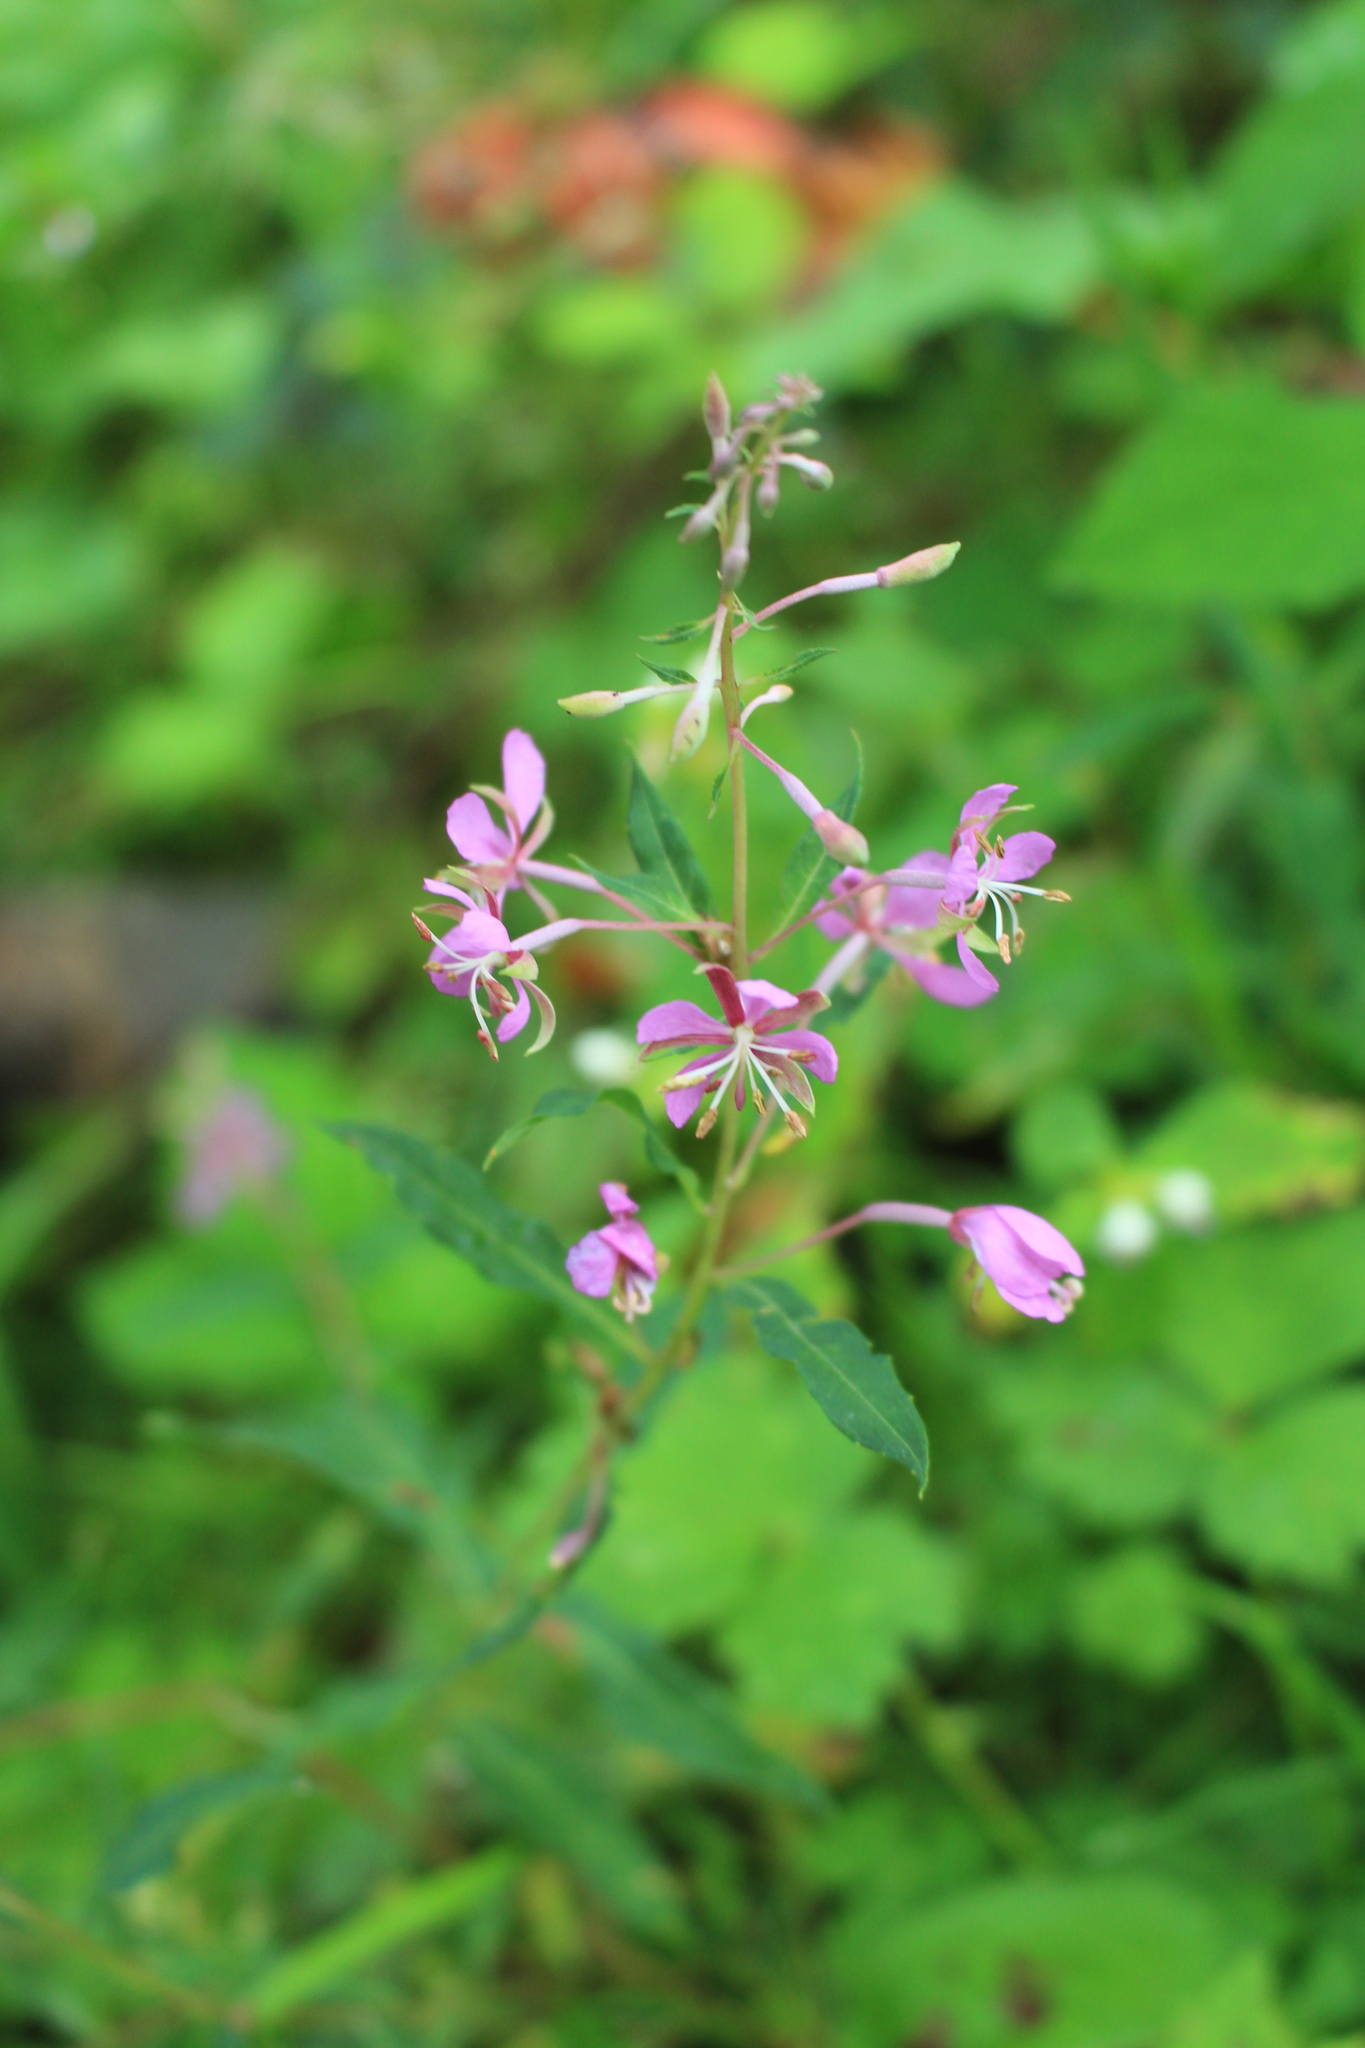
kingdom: Plantae
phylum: Tracheophyta
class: Magnoliopsida
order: Myrtales
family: Onagraceae
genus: Chamaenerion
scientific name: Chamaenerion angustifolium
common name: Fireweed
